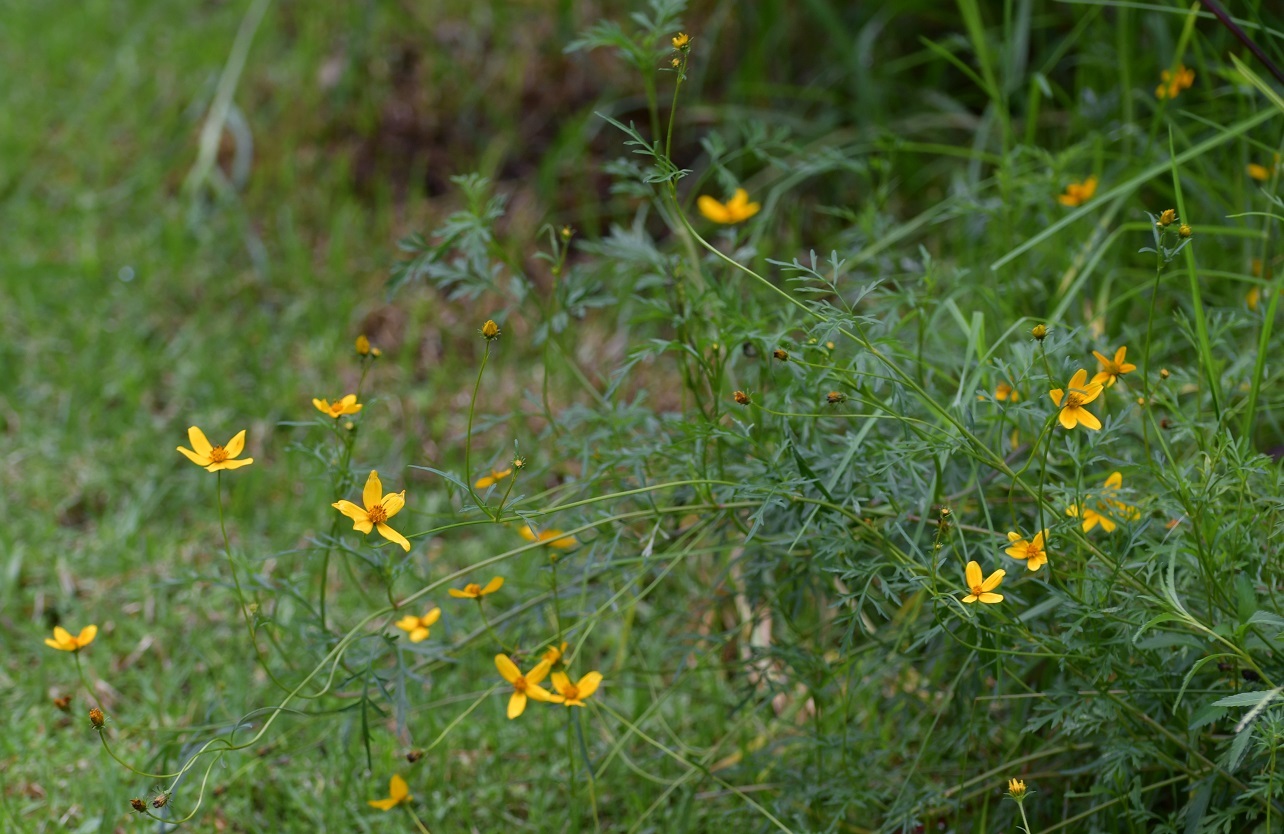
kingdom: Plantae
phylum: Tracheophyta
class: Magnoliopsida
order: Asterales
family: Asteraceae
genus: Bidens
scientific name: Bidens triplinervia
